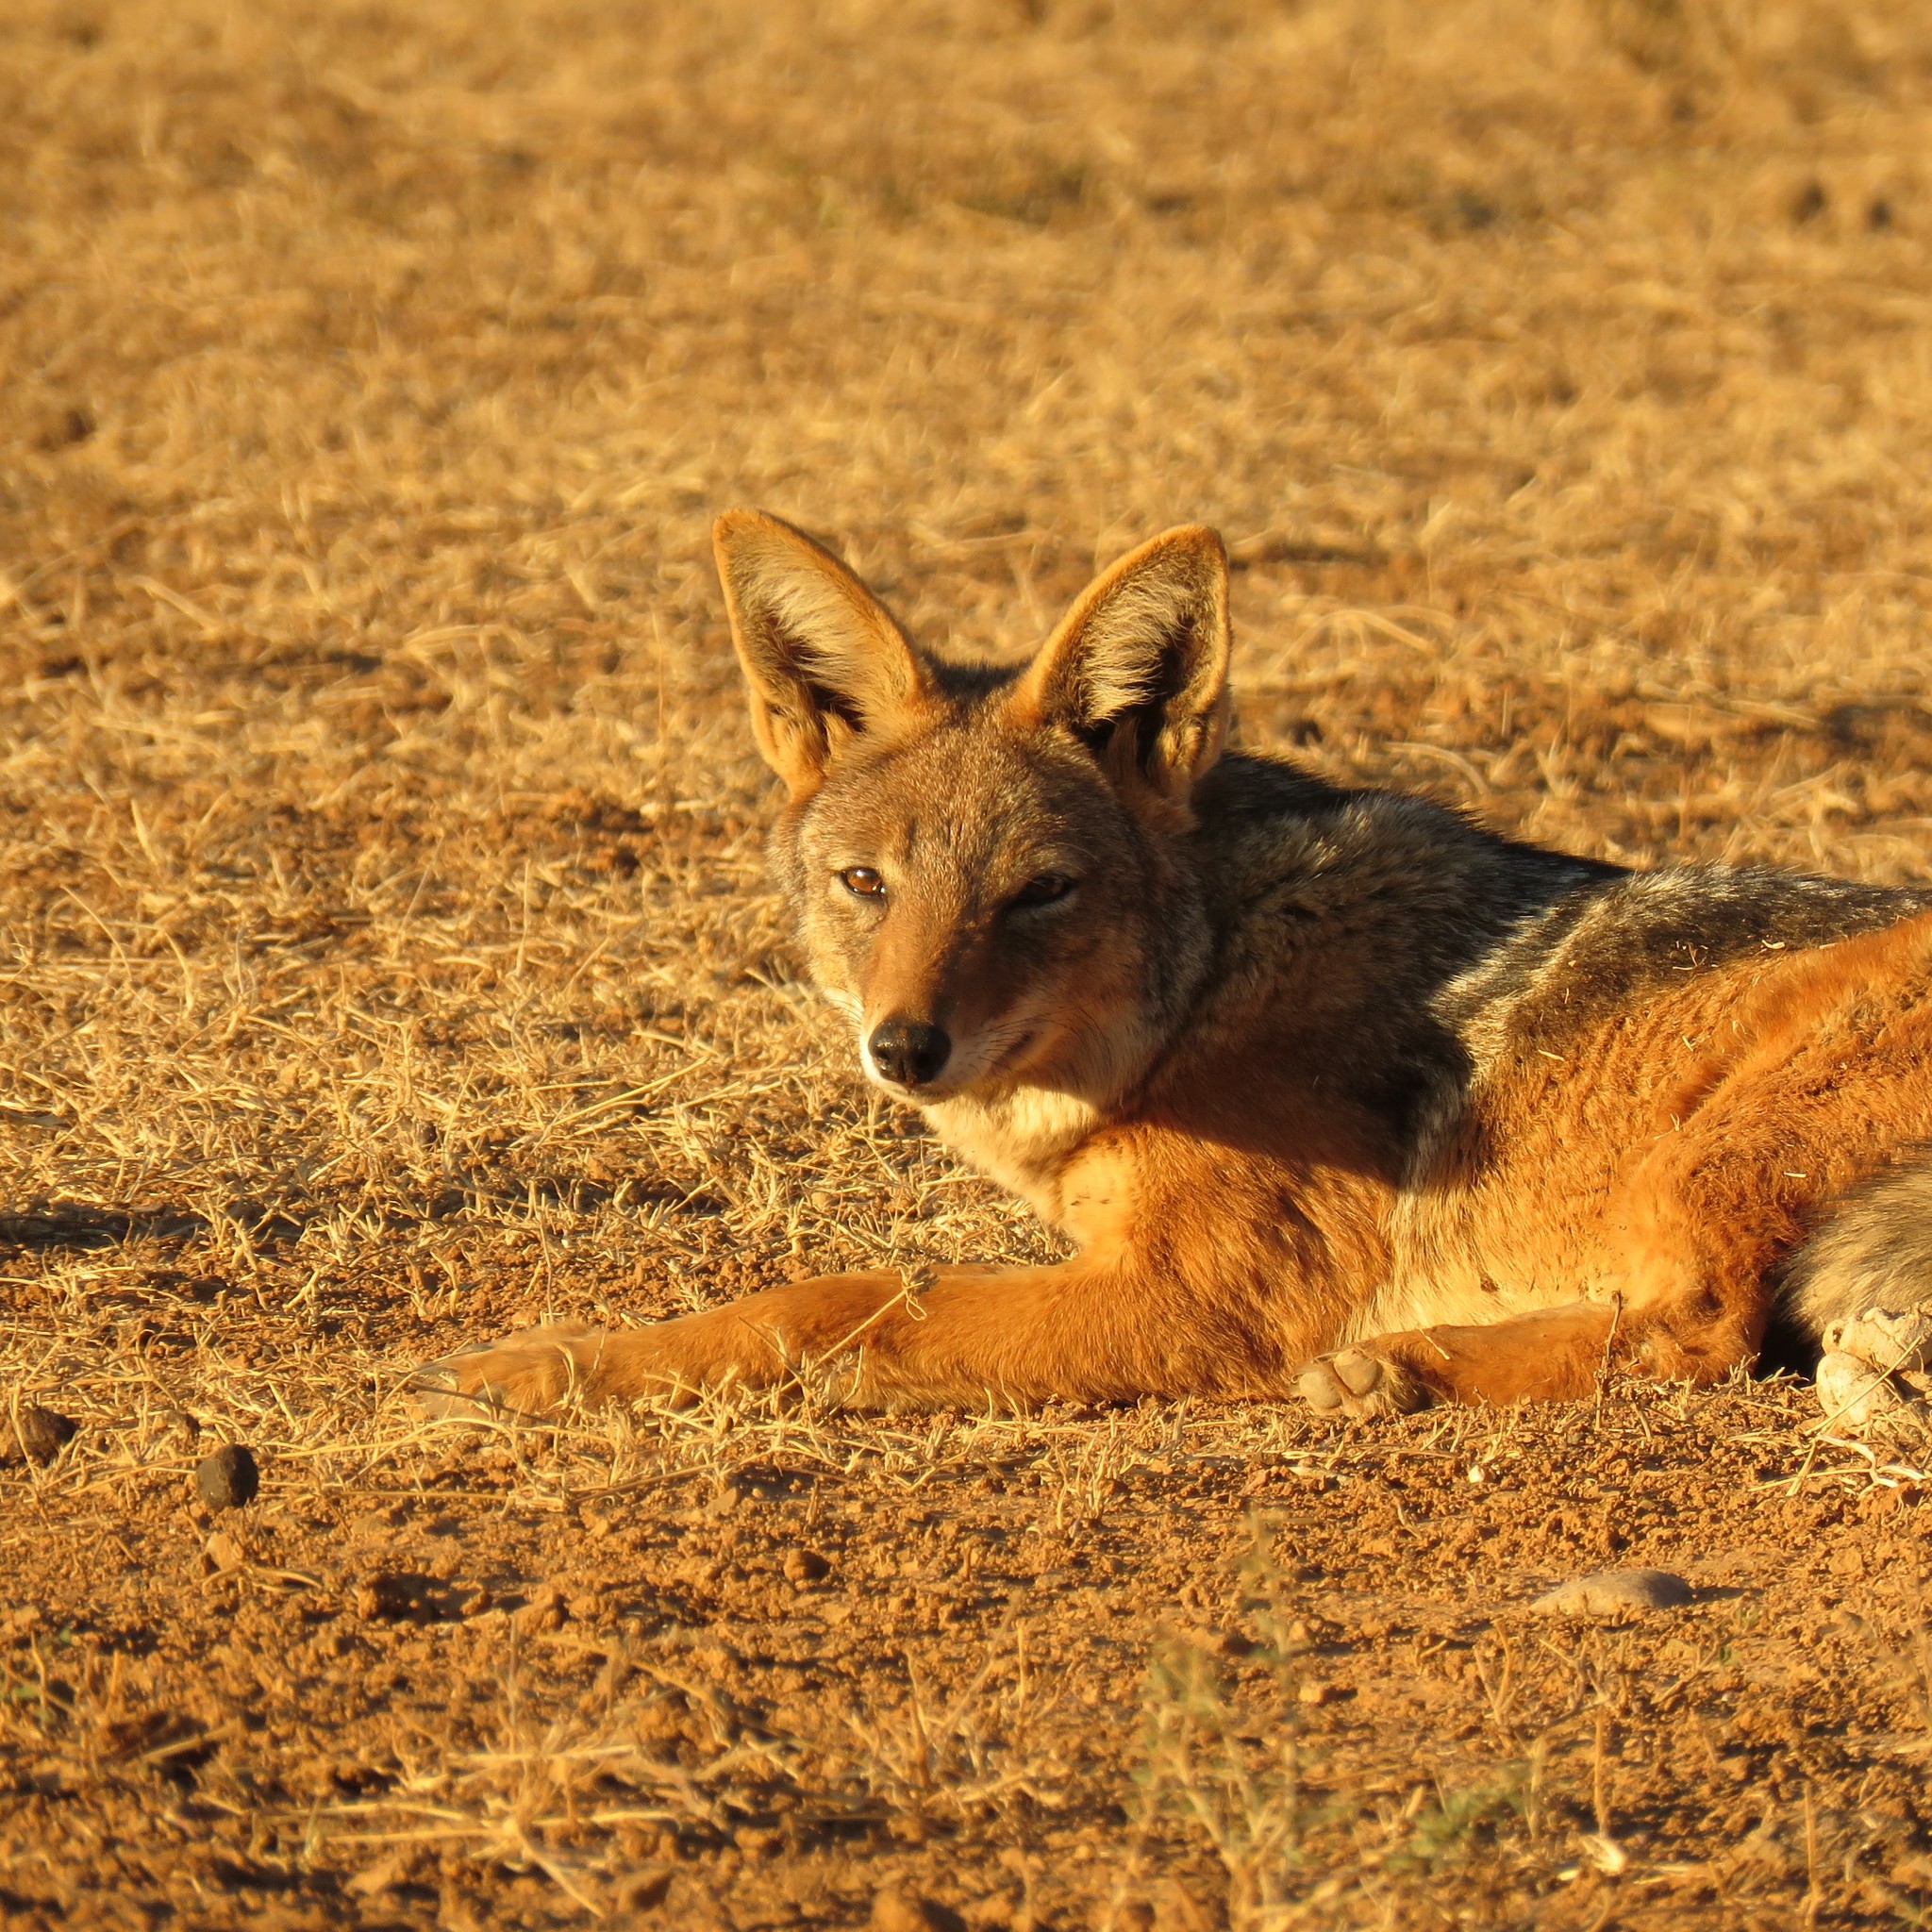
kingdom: Animalia
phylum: Chordata
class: Mammalia
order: Carnivora
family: Canidae
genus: Lupulella
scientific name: Lupulella
